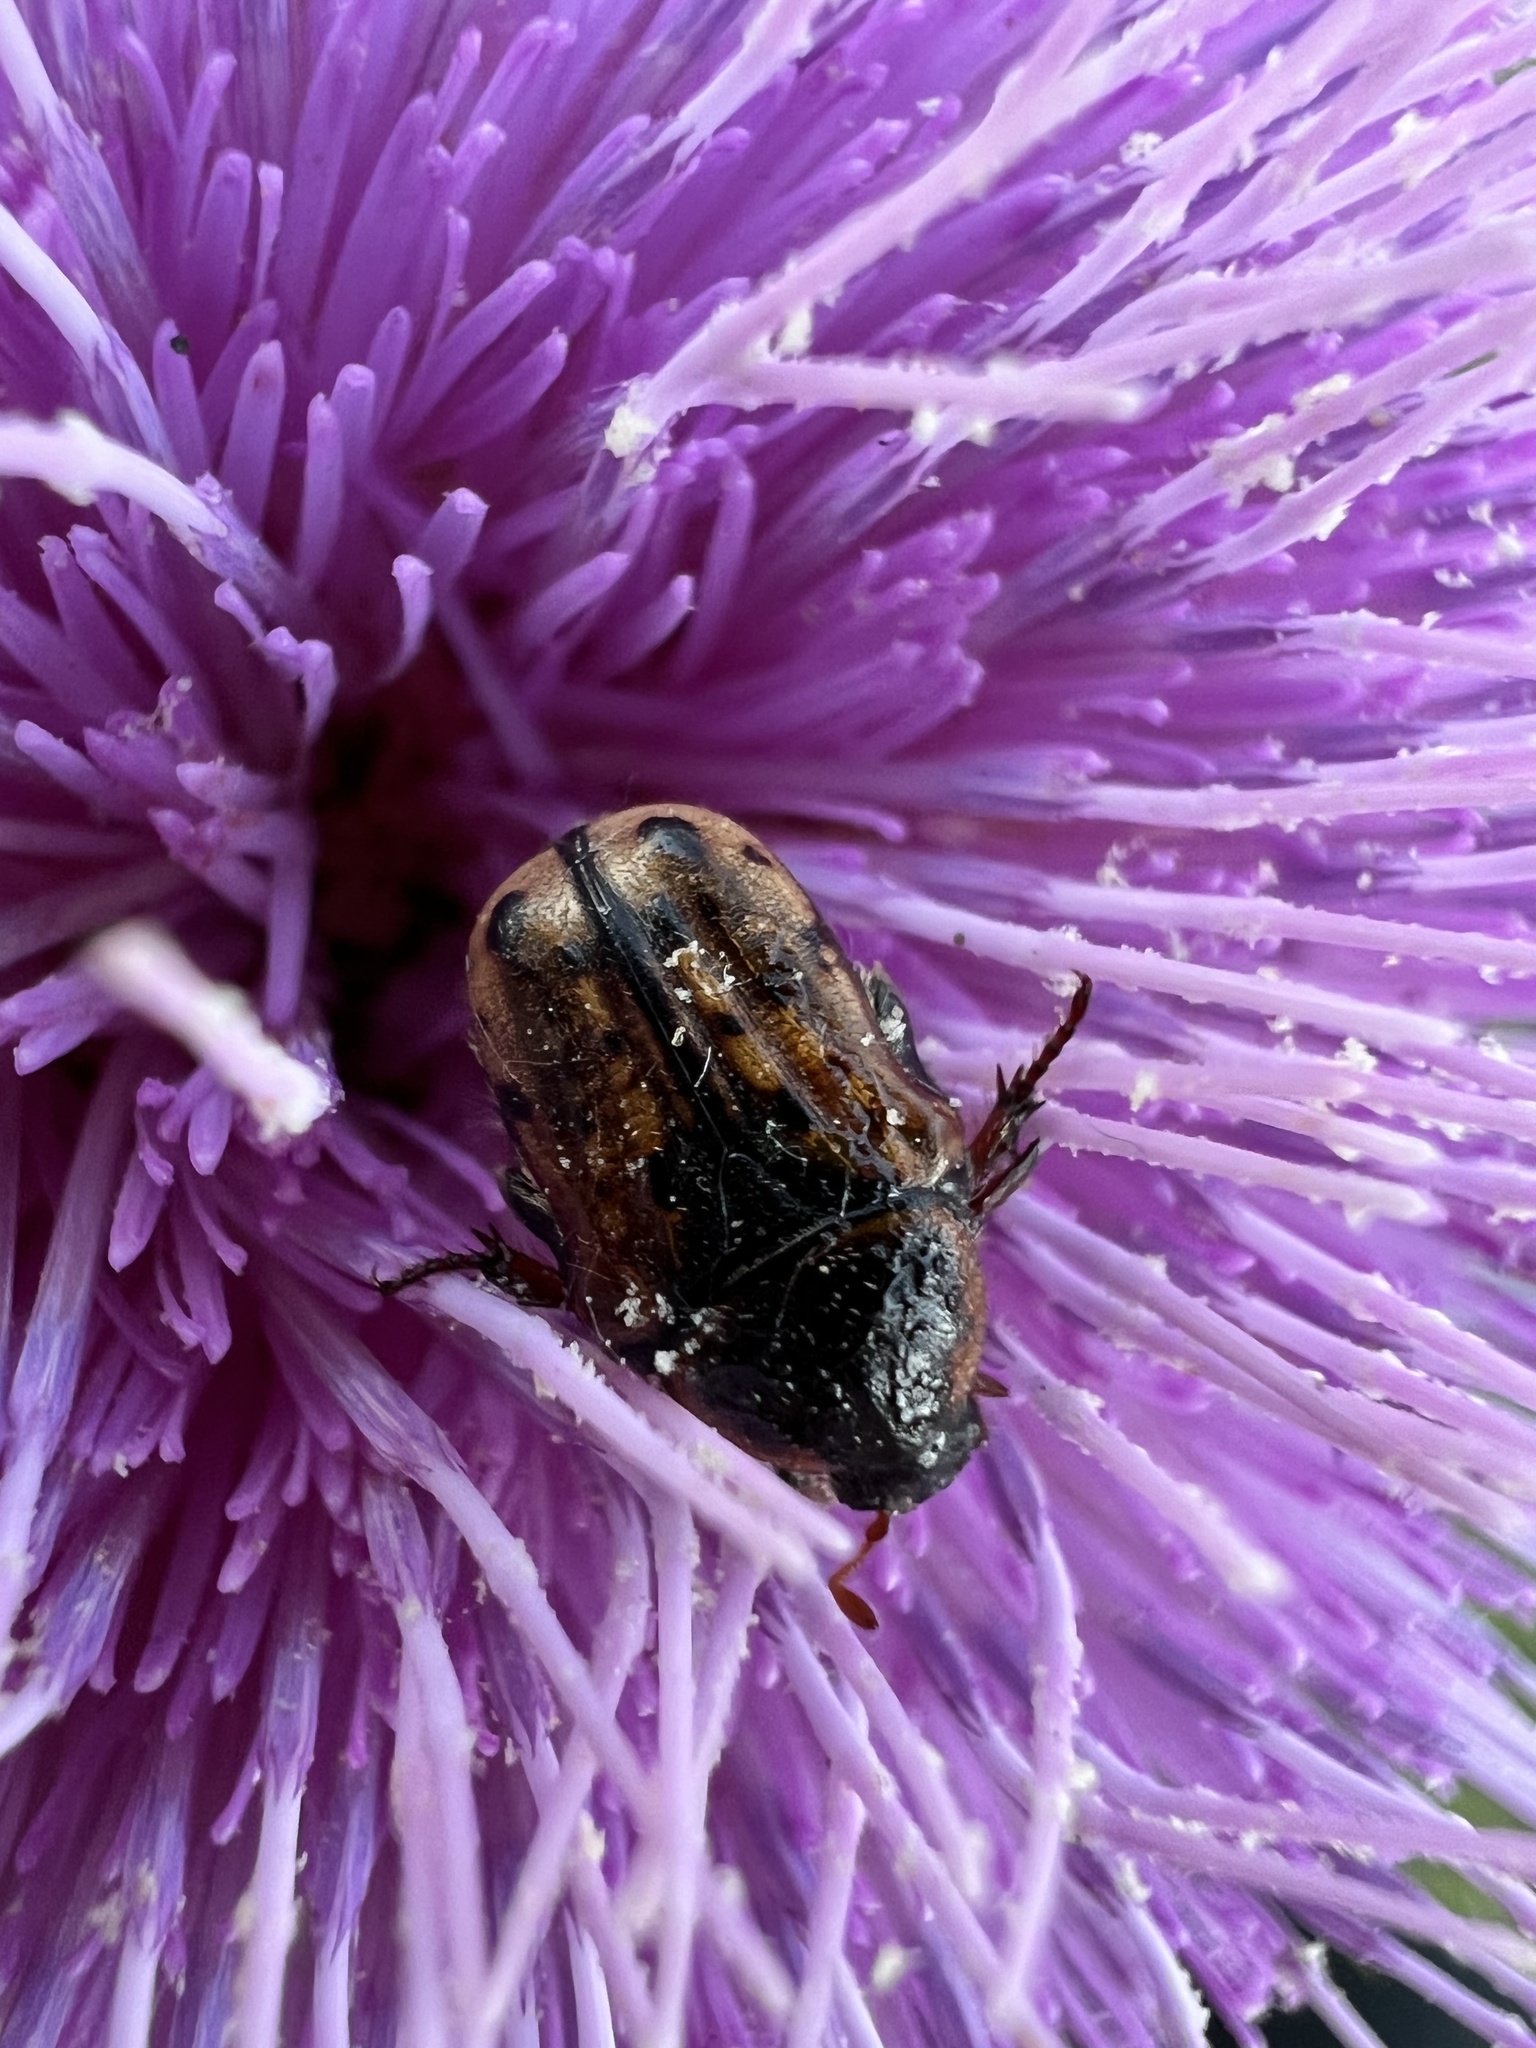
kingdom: Animalia
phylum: Arthropoda
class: Insecta
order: Coleoptera
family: Scarabaeidae
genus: Euphoria
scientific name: Euphoria kernii
